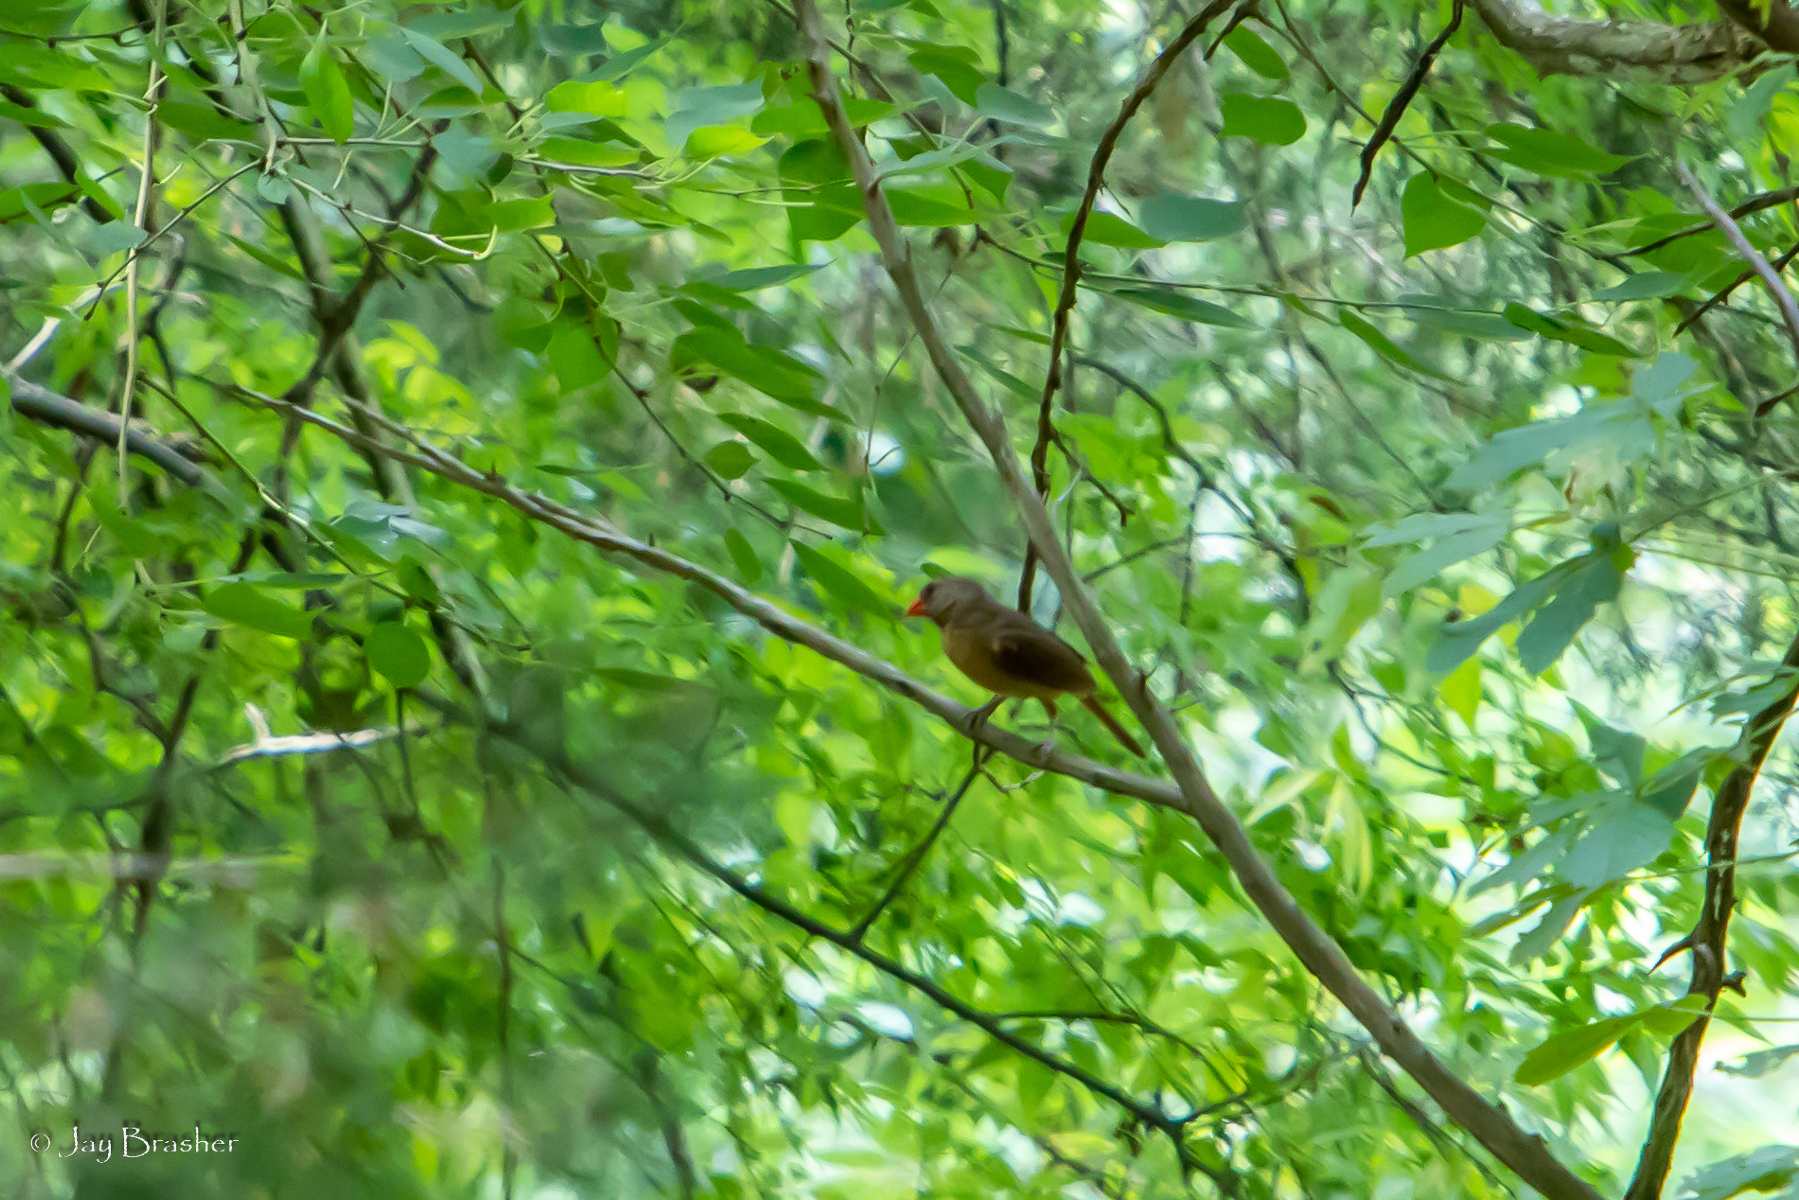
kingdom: Animalia
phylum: Chordata
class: Aves
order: Passeriformes
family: Cardinalidae
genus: Cardinalis
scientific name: Cardinalis cardinalis
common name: Northern cardinal
